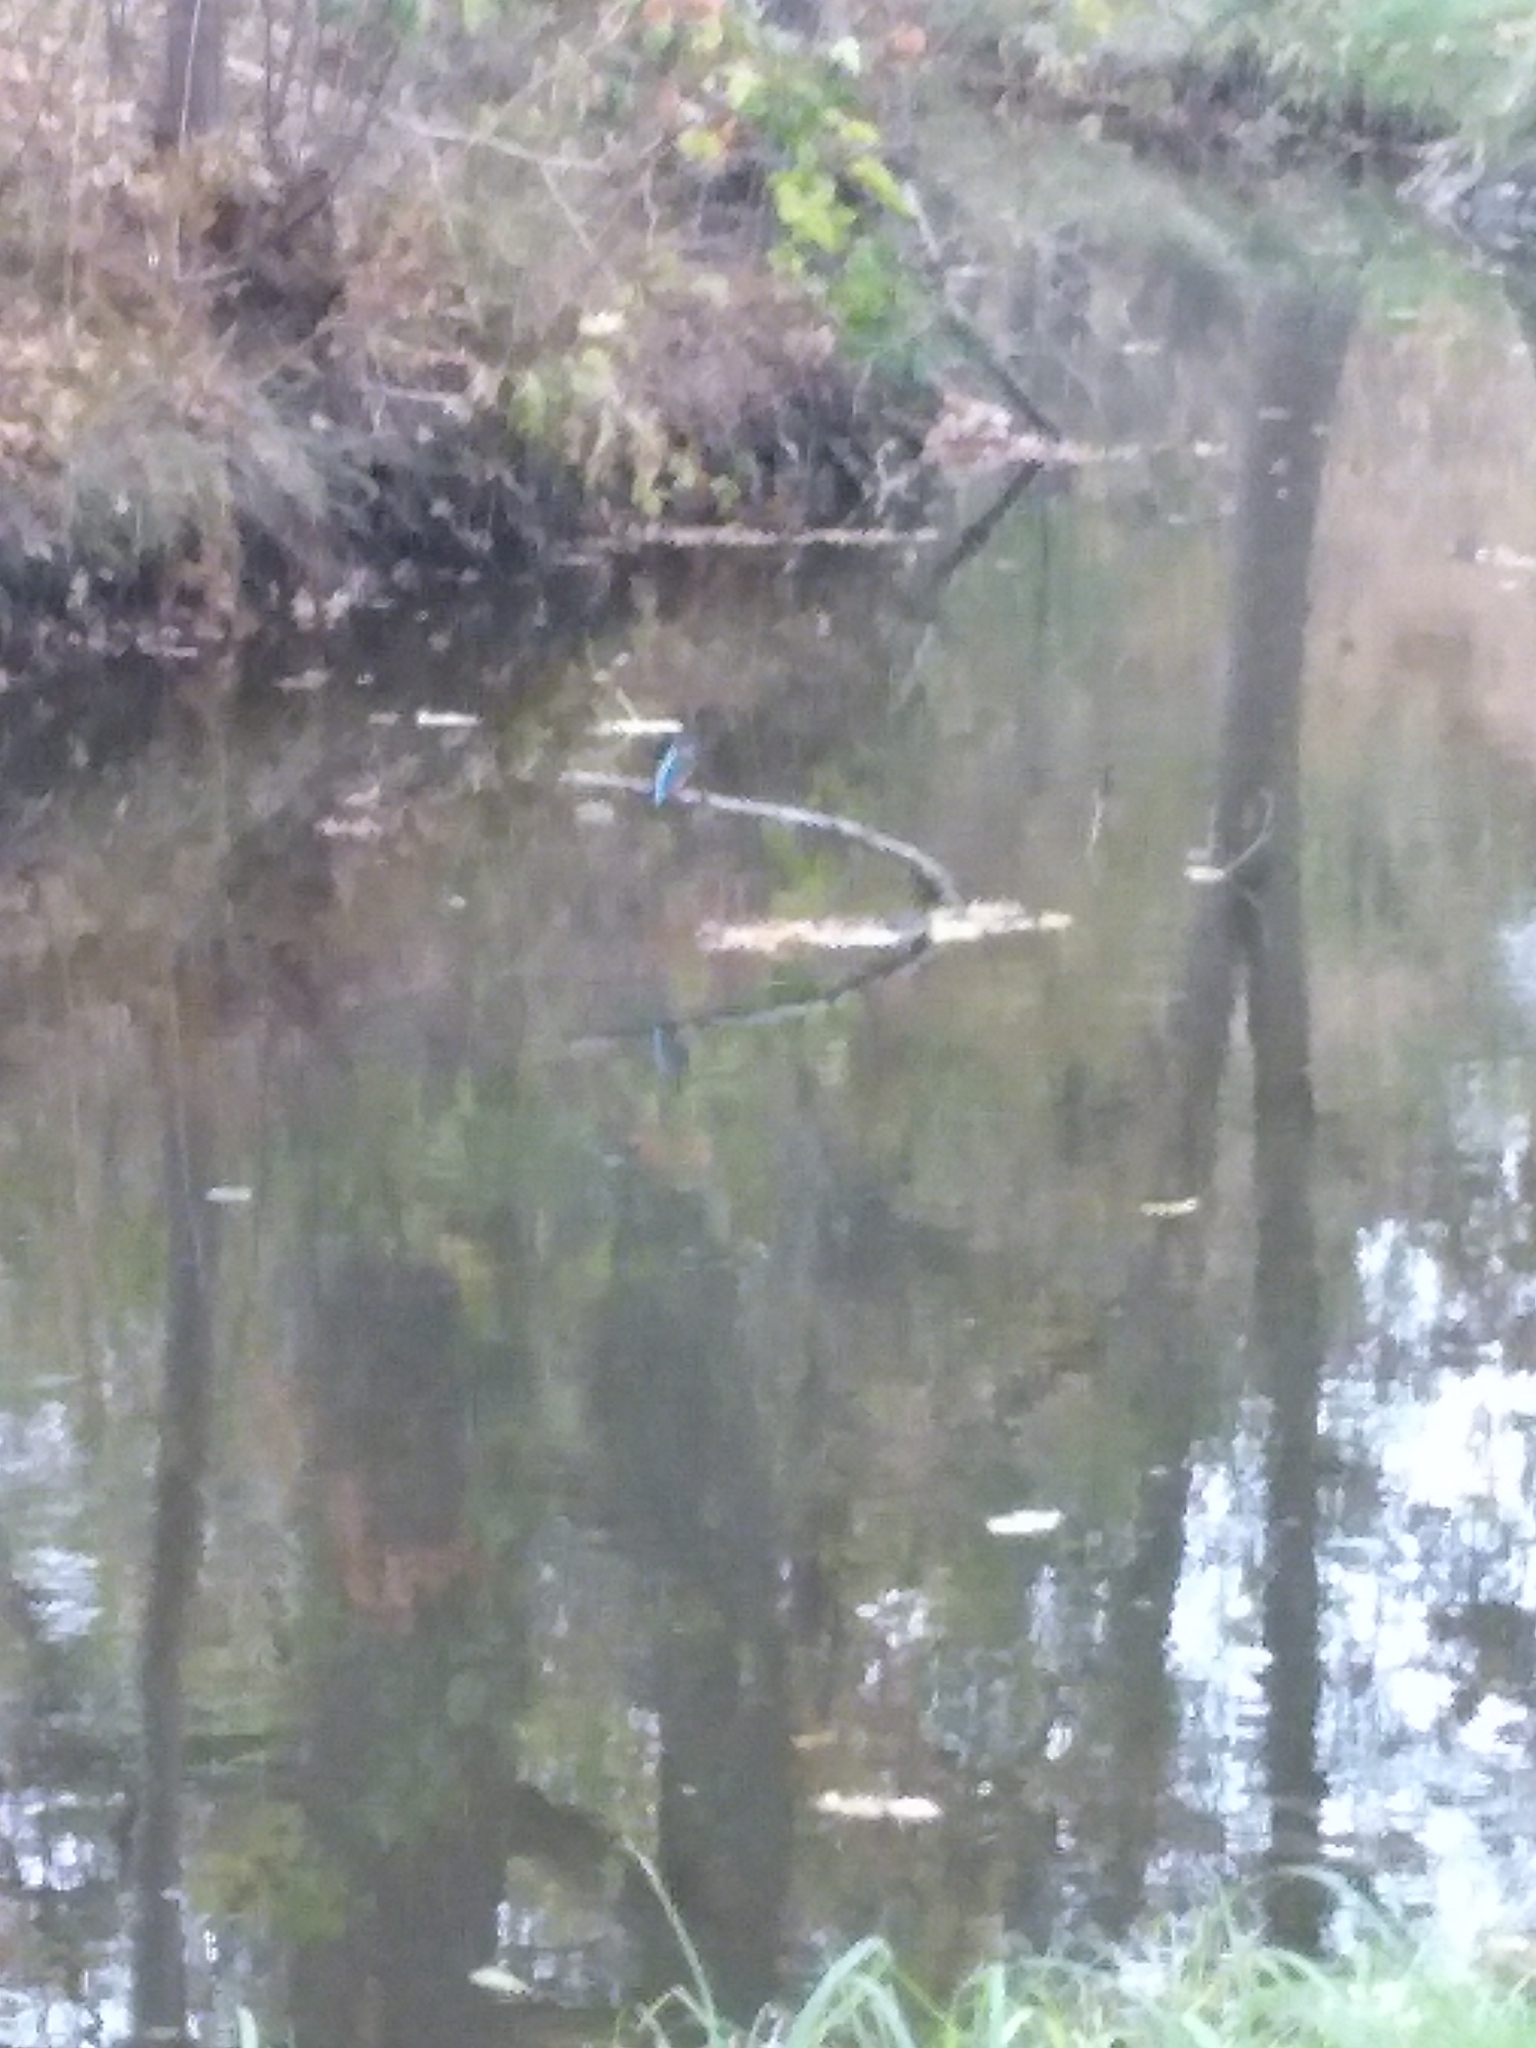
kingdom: Animalia
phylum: Chordata
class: Aves
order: Coraciiformes
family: Alcedinidae
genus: Alcedo
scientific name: Alcedo atthis
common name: Common kingfisher
